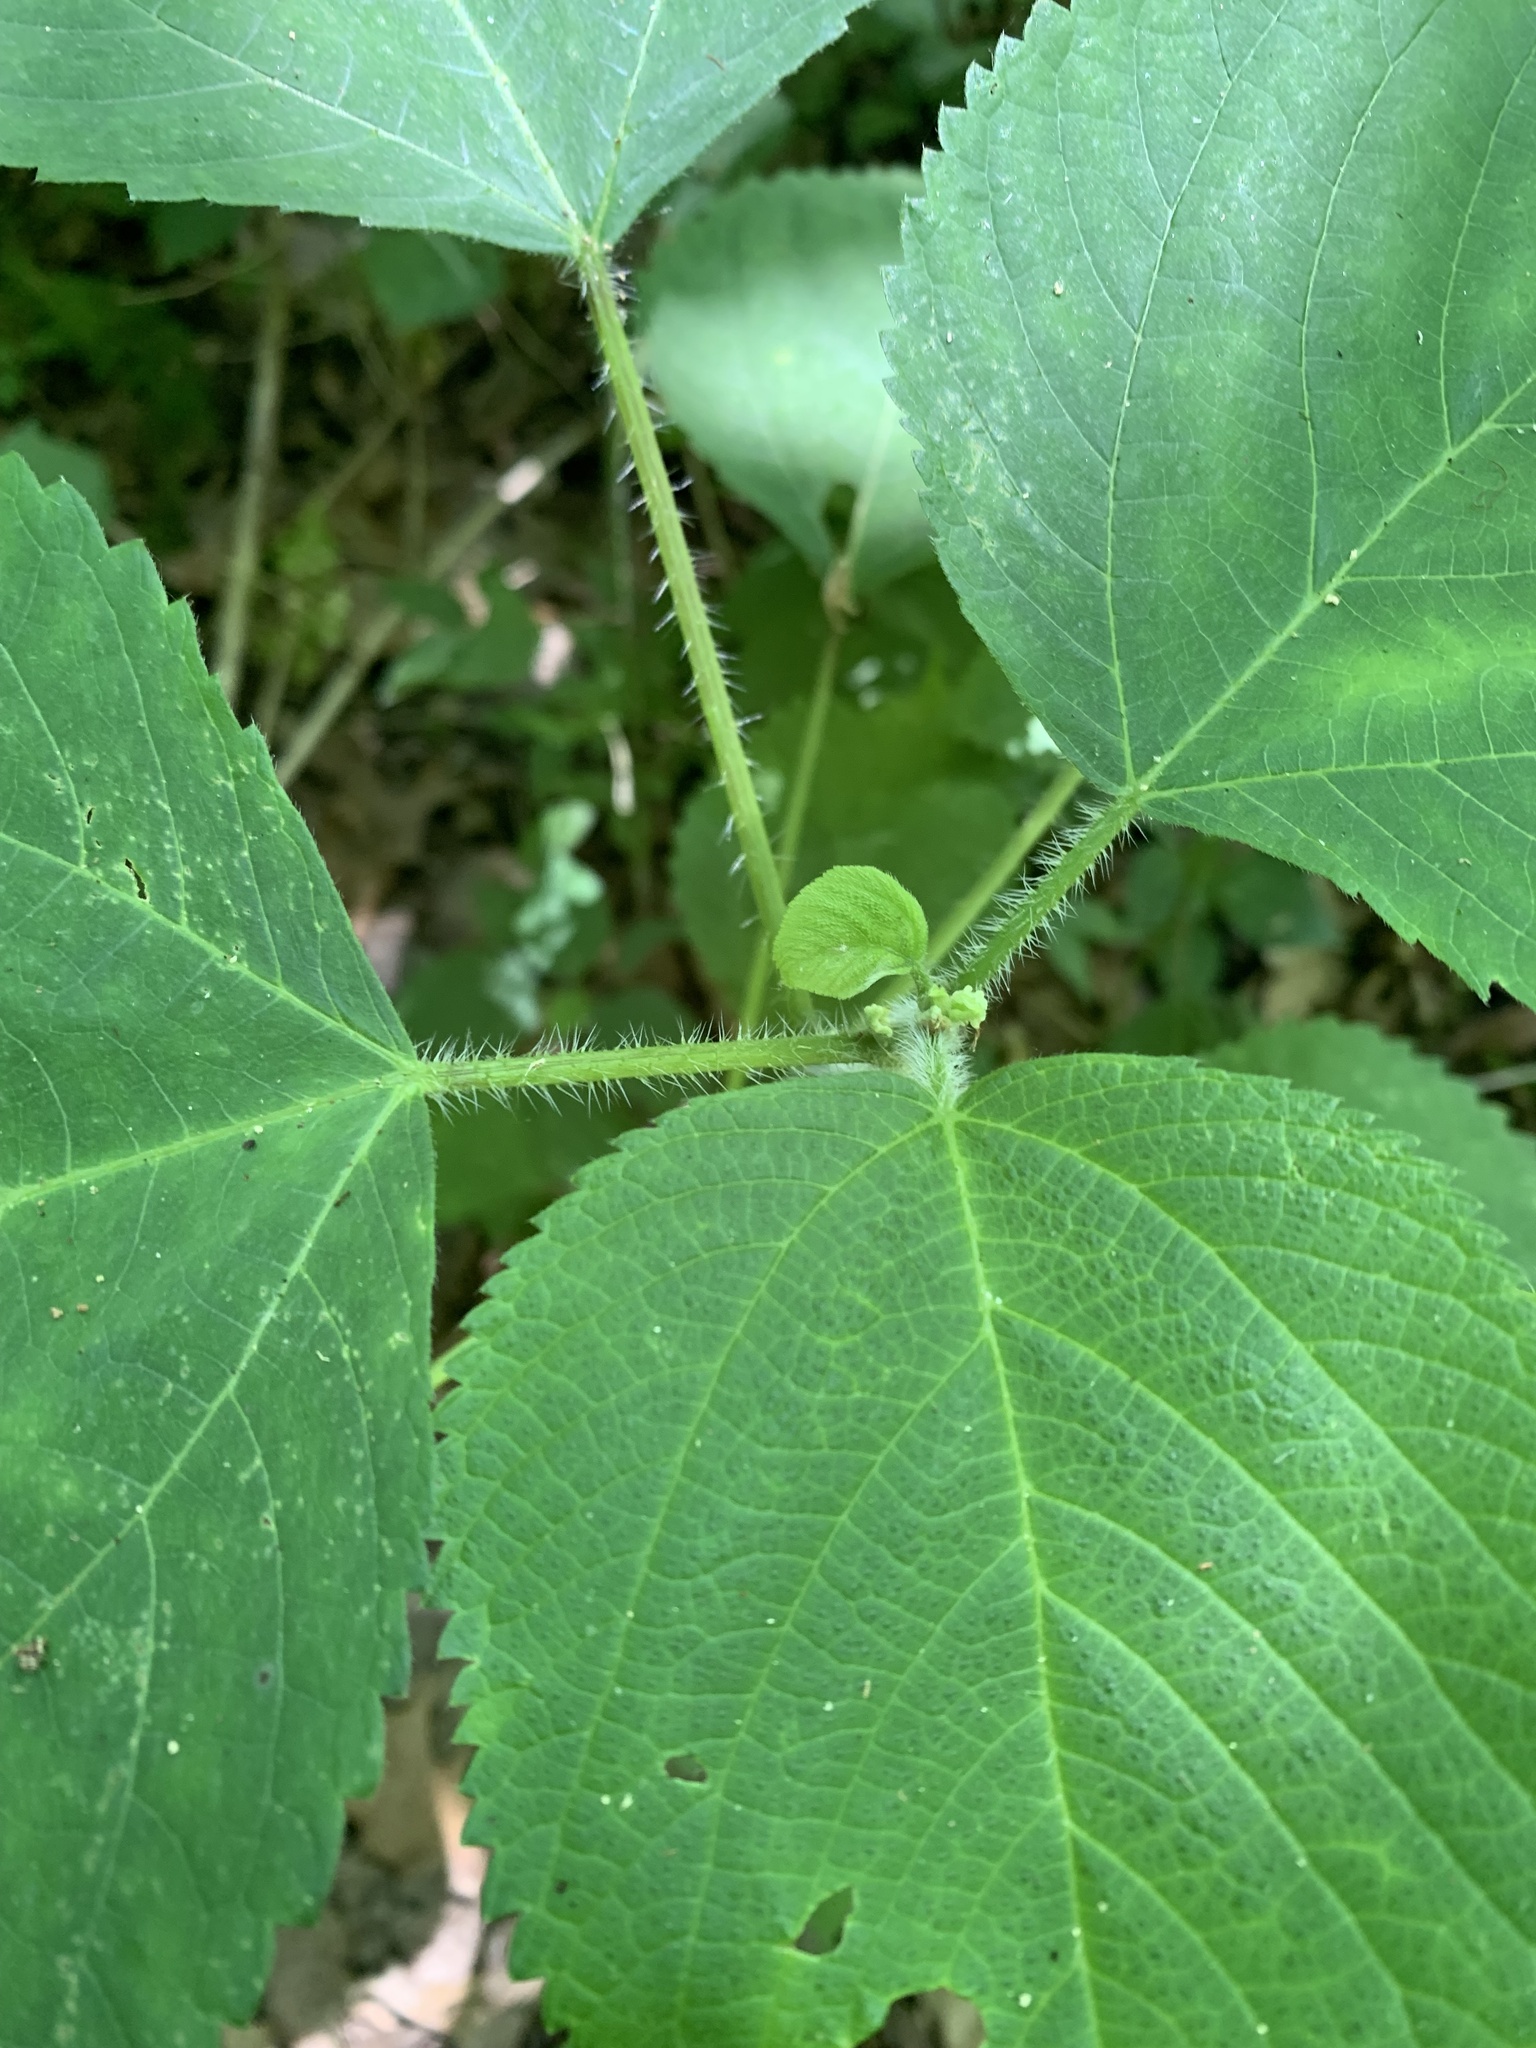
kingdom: Plantae
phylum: Tracheophyta
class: Magnoliopsida
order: Rosales
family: Urticaceae
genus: Laportea
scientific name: Laportea canadensis
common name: Canada nettle
